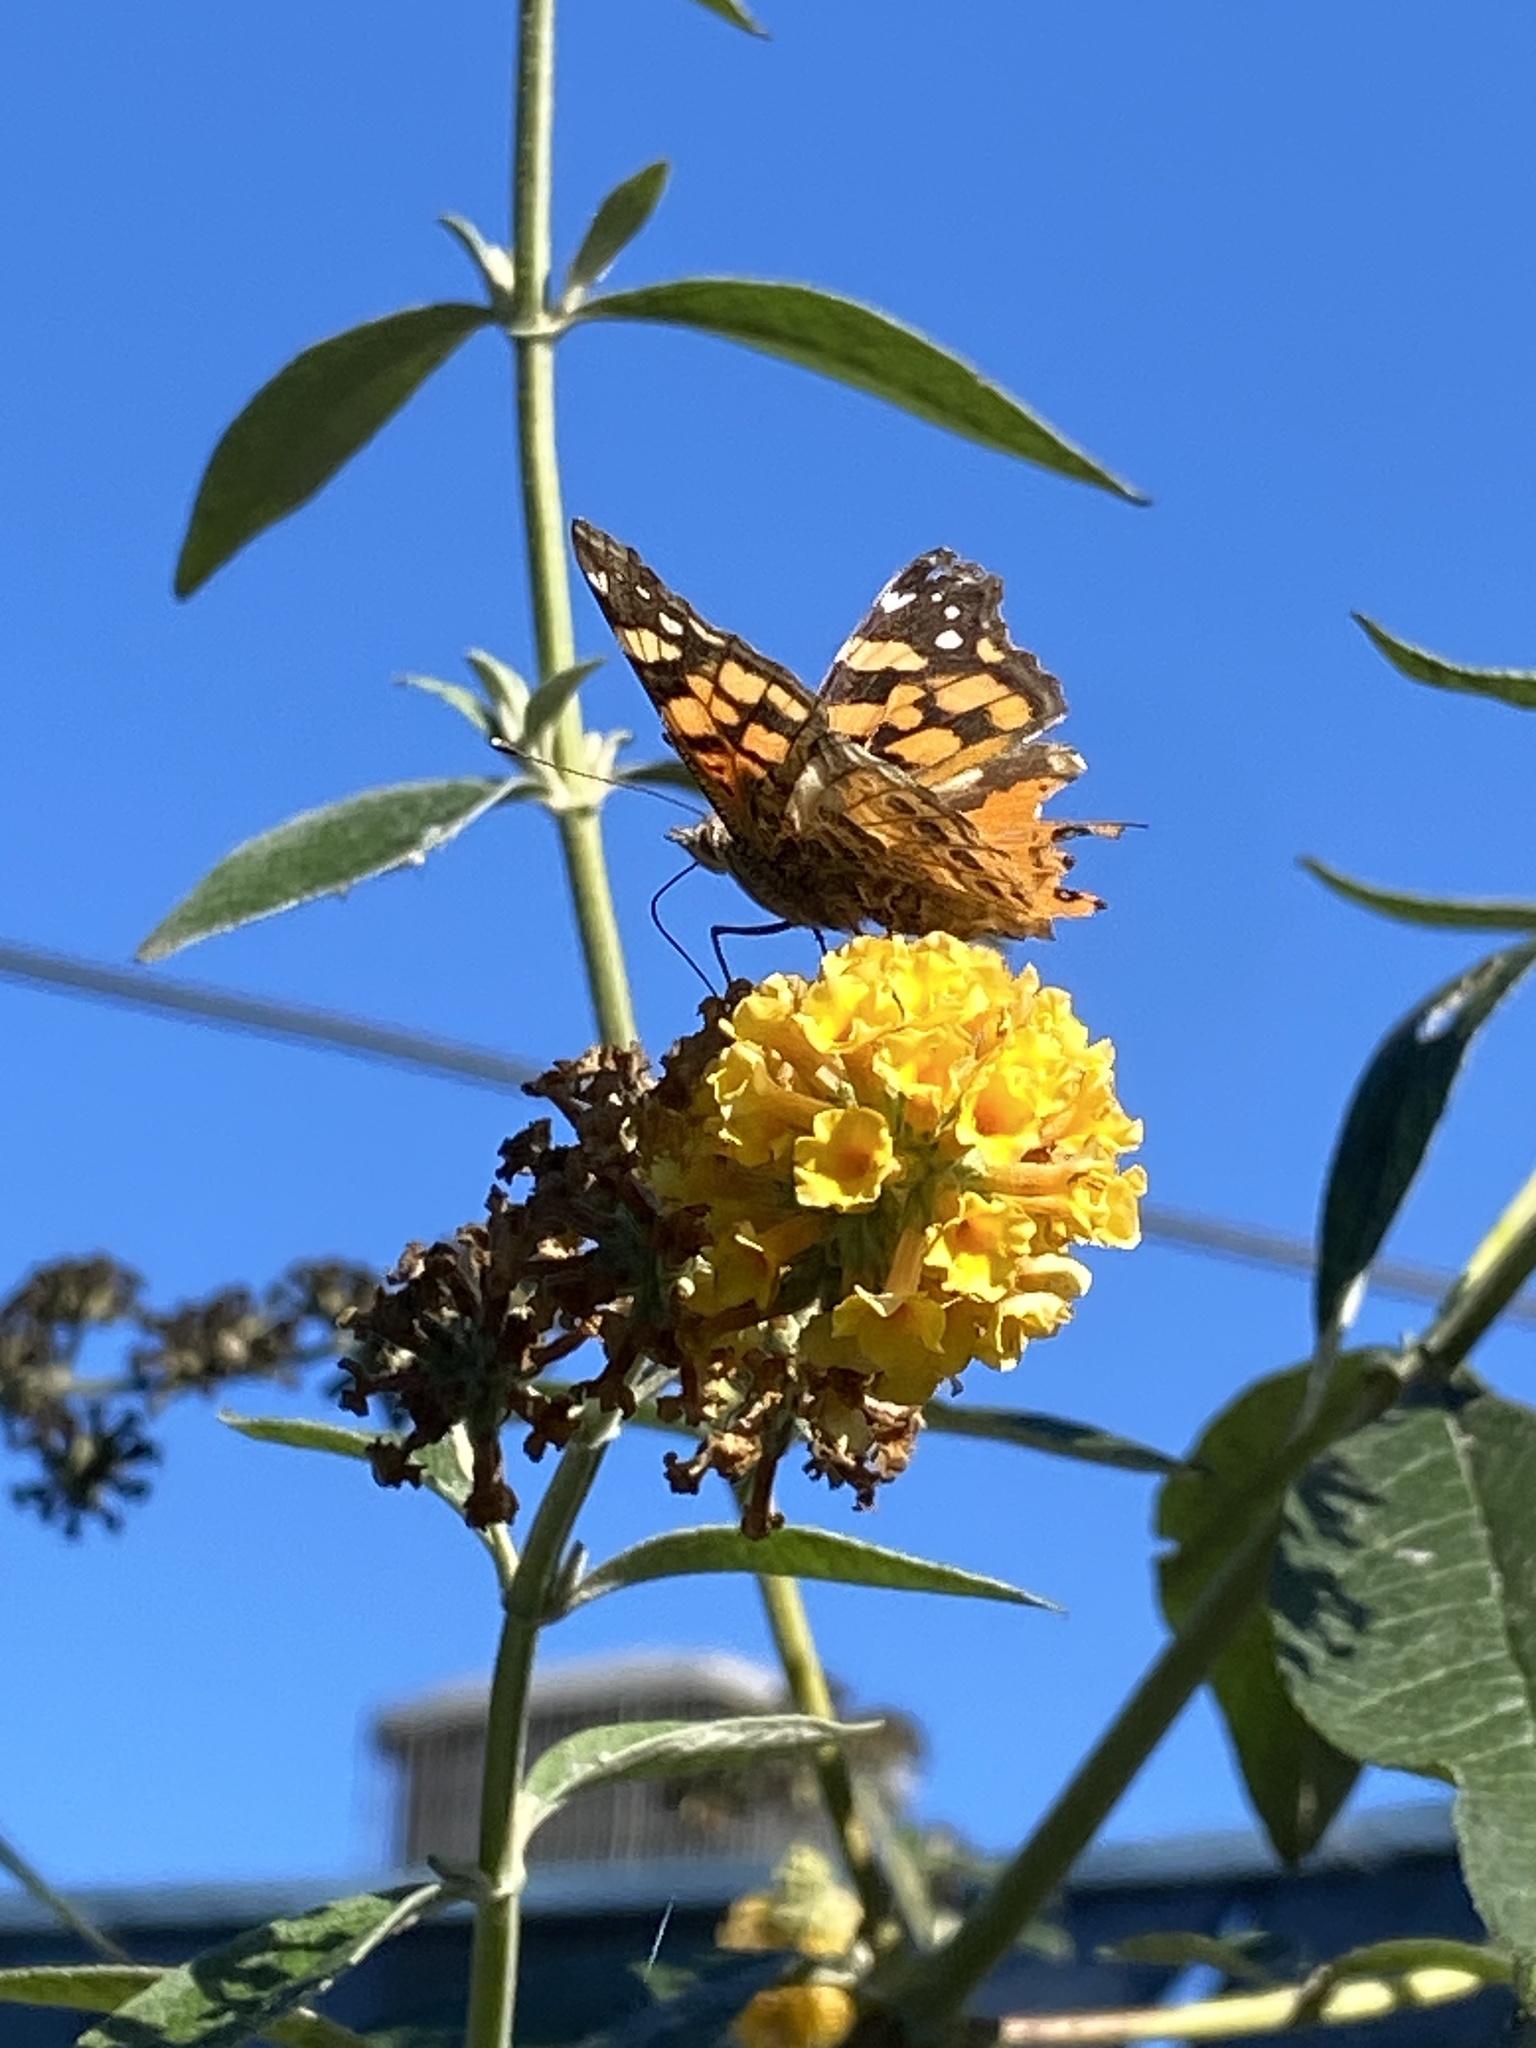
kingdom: Animalia
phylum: Arthropoda
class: Insecta
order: Lepidoptera
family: Nymphalidae
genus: Vanessa
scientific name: Vanessa annabella
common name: West coast lady
